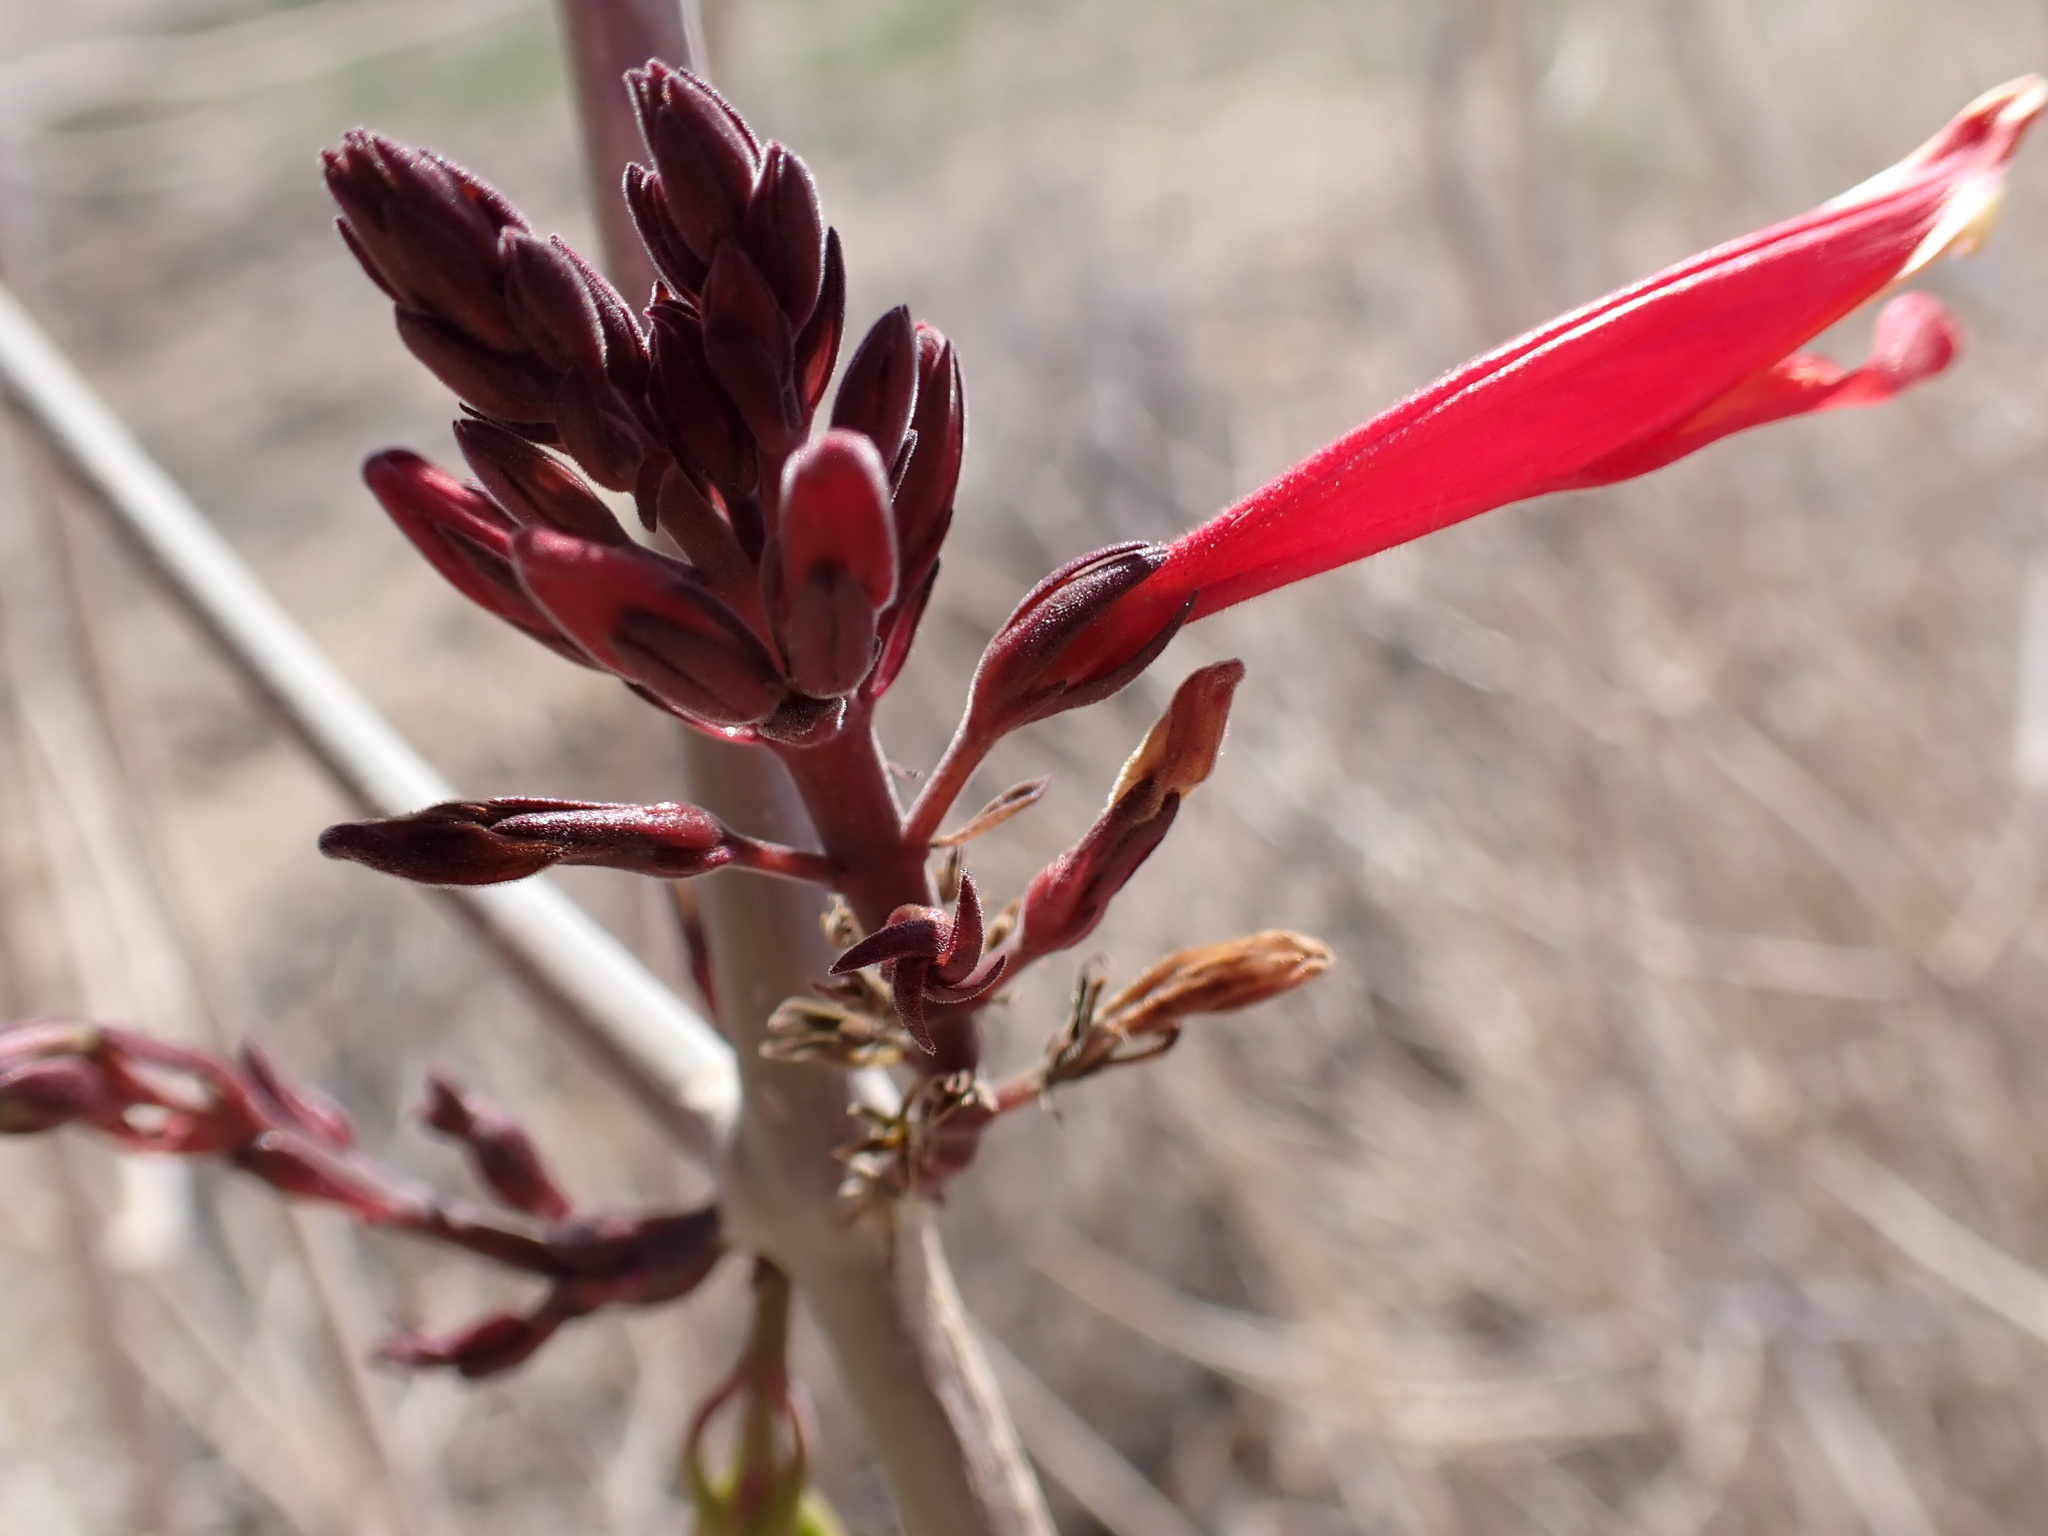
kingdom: Plantae
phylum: Tracheophyta
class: Magnoliopsida
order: Lamiales
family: Acanthaceae
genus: Justicia
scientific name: Justicia californica
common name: Chuparosa-honeysuckle
